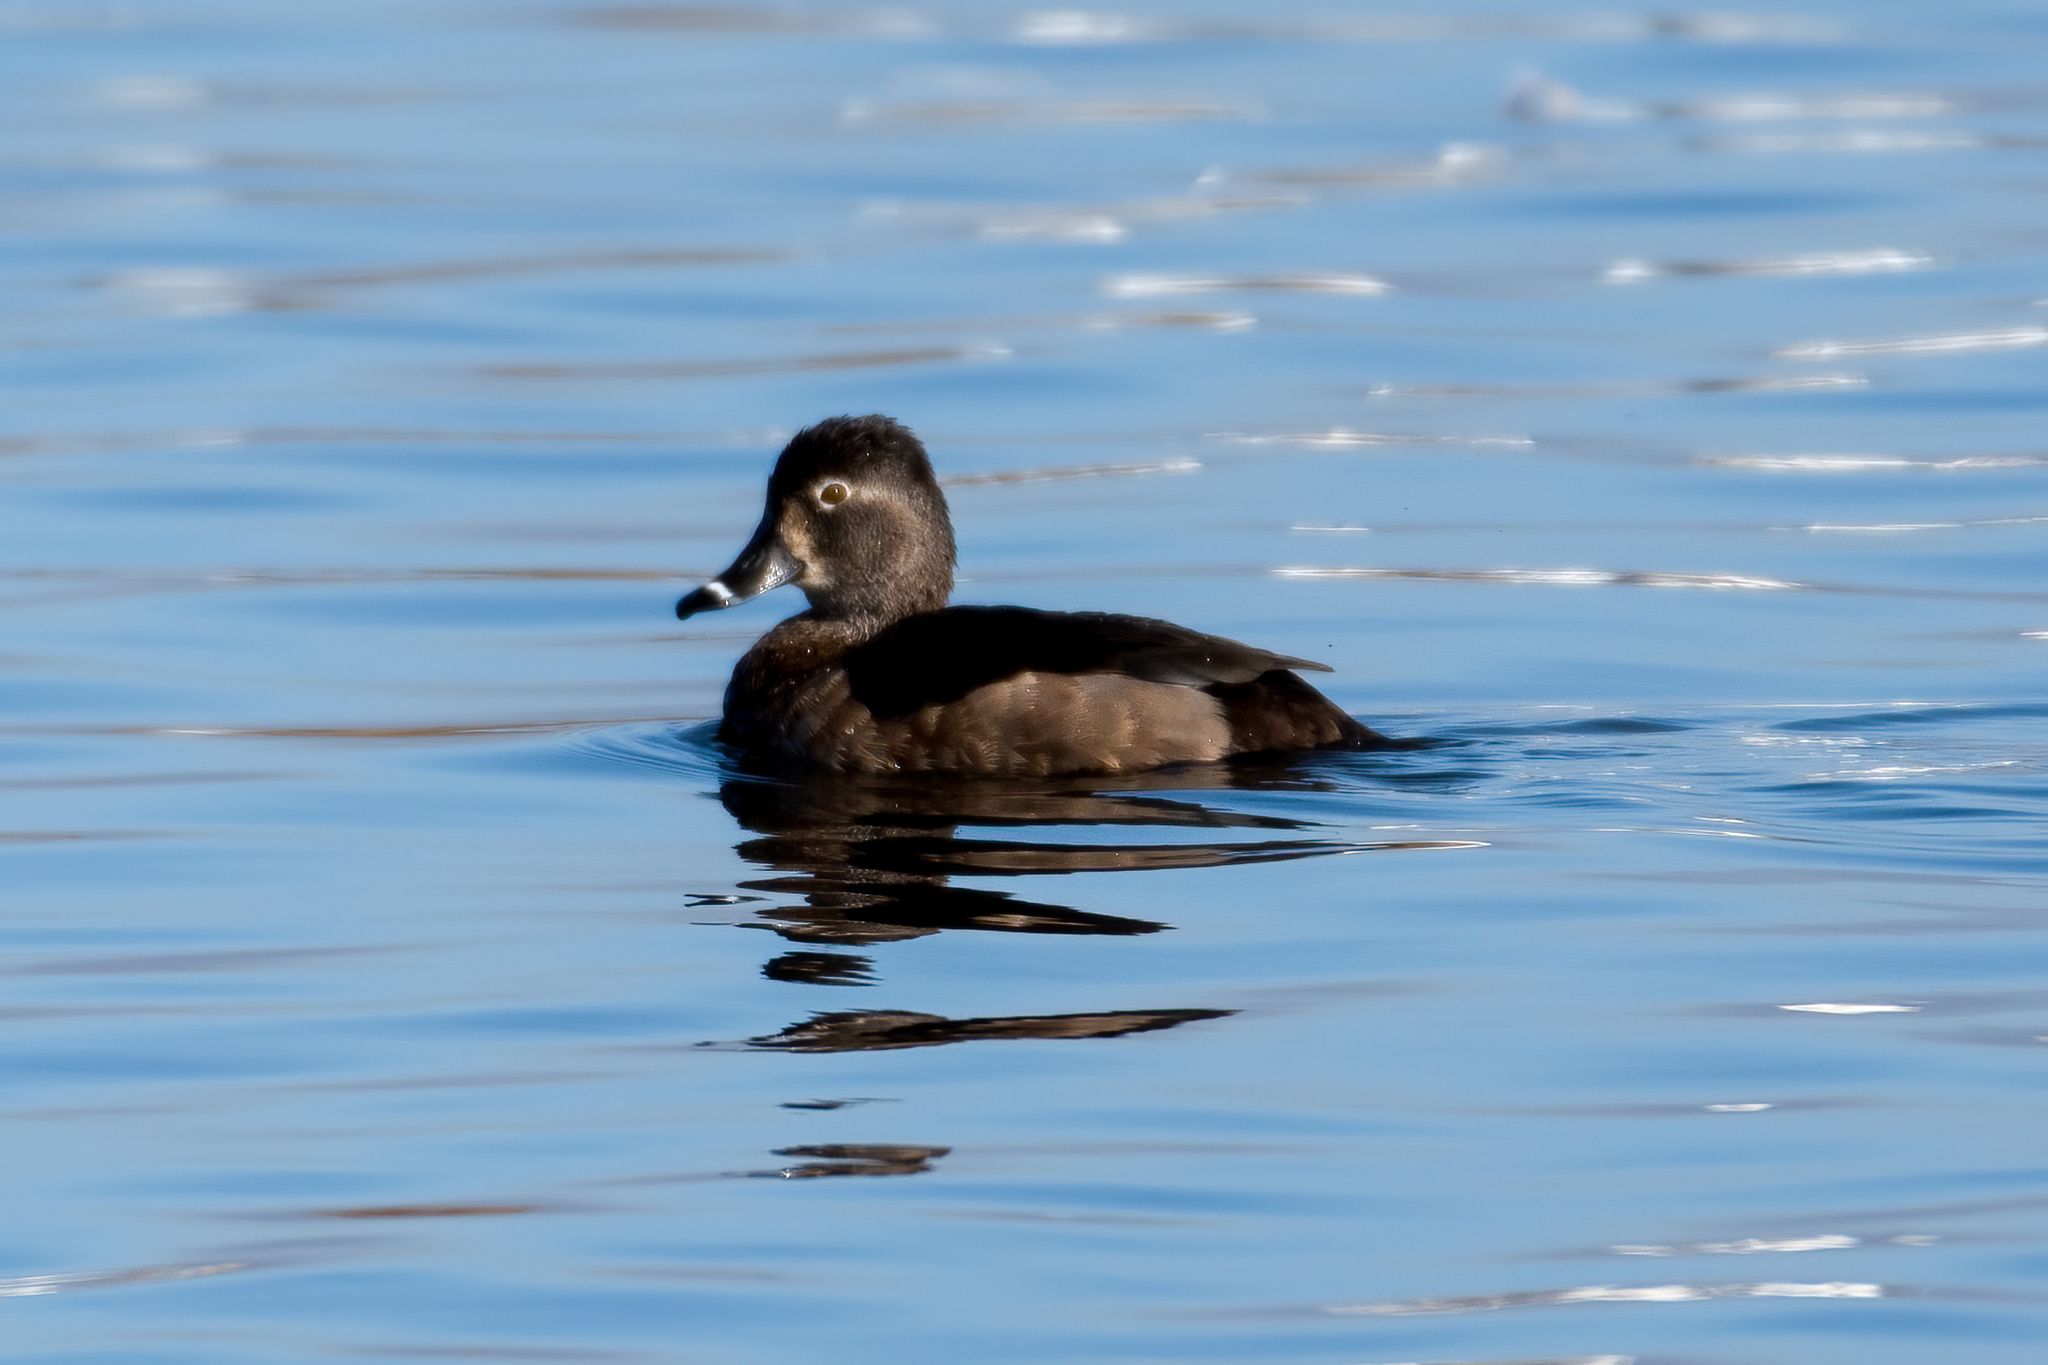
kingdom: Animalia
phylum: Chordata
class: Aves
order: Anseriformes
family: Anatidae
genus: Aythya
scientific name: Aythya collaris
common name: Ring-necked duck
